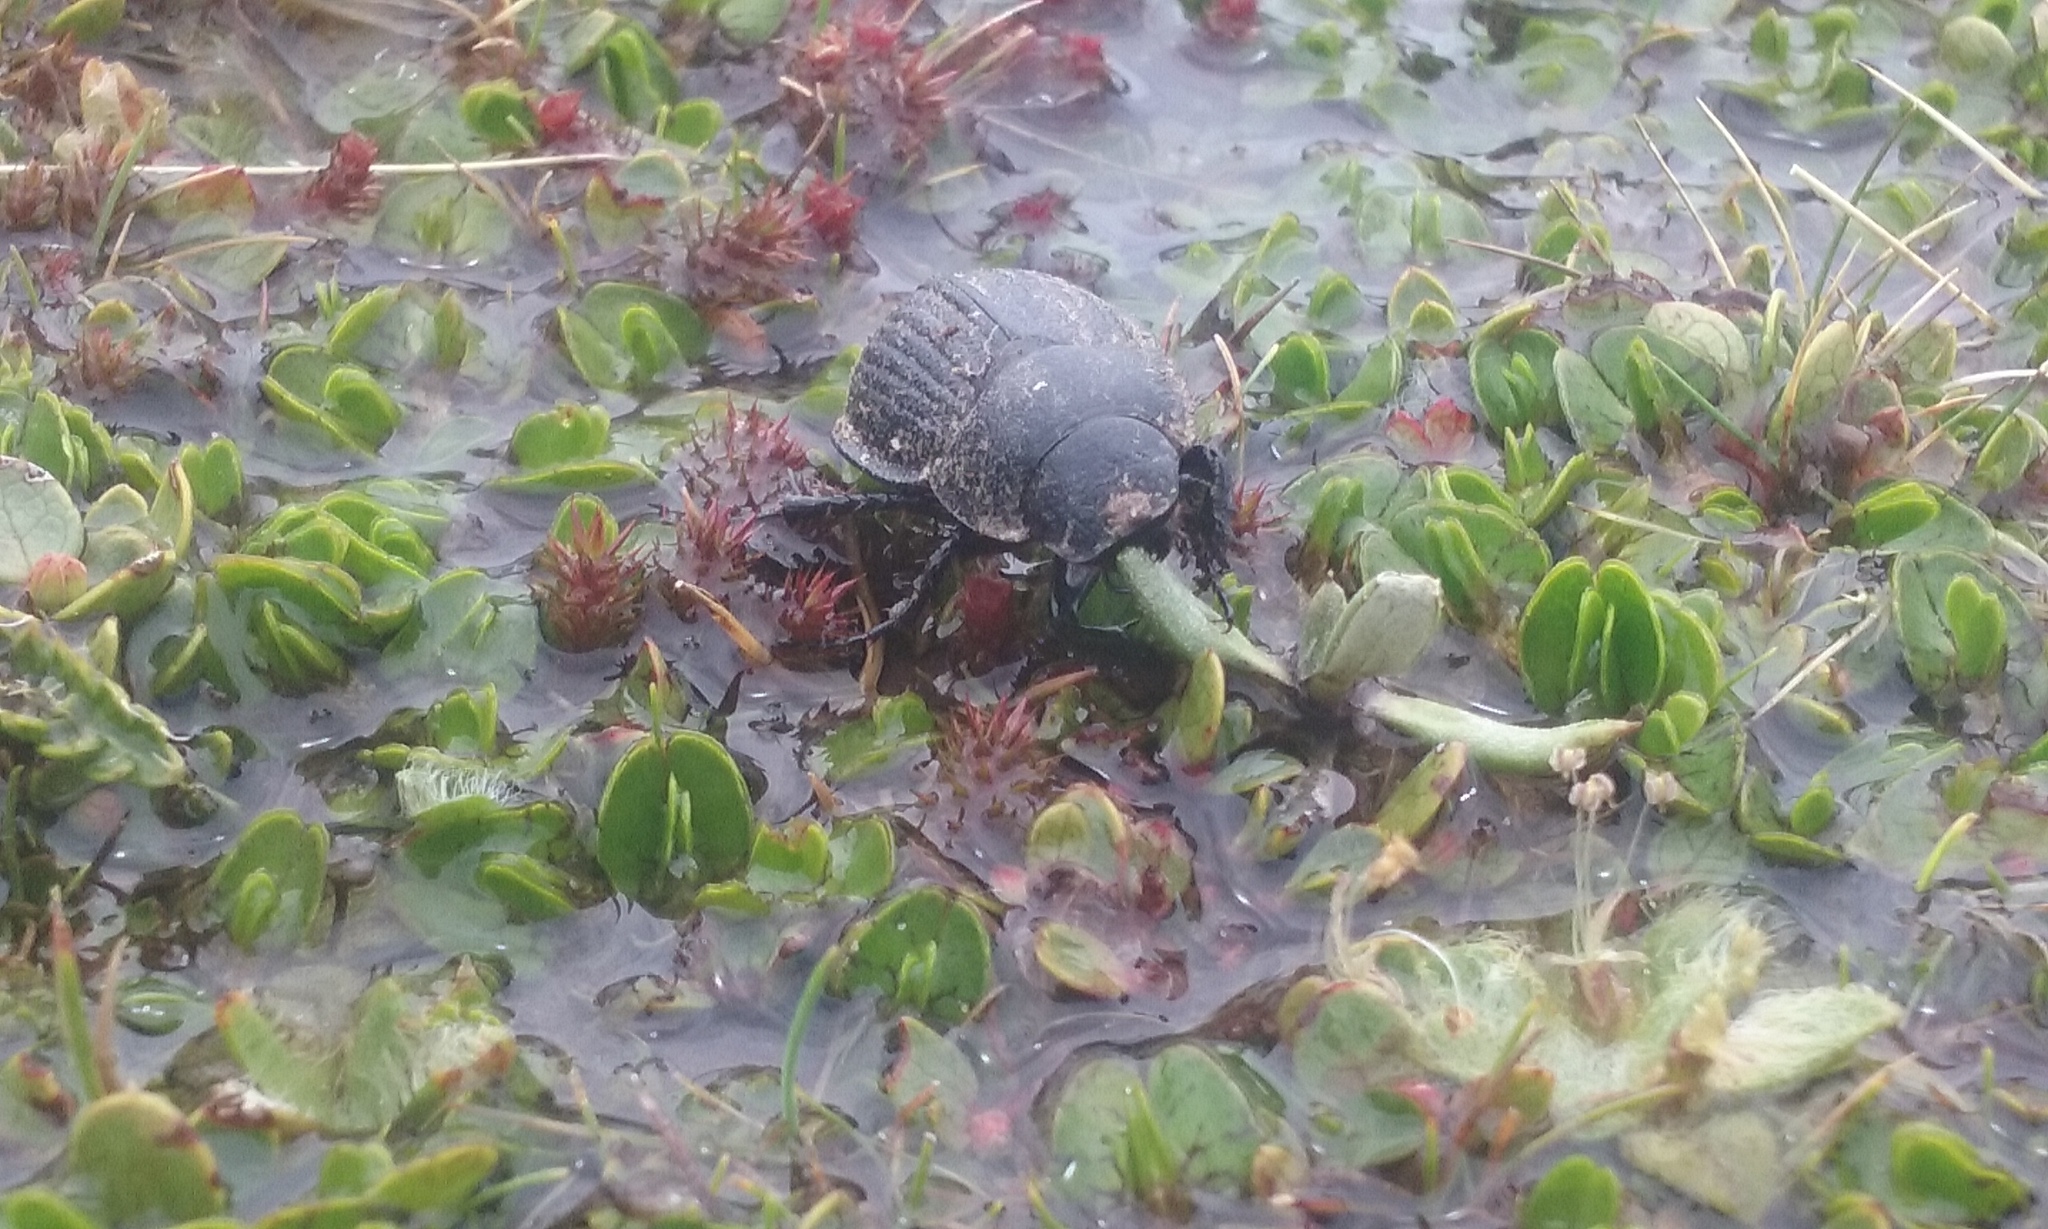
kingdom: Animalia
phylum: Arthropoda
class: Insecta
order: Coleoptera
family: Scarabaeidae
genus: Scythrodes
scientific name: Scythrodes squalidus
